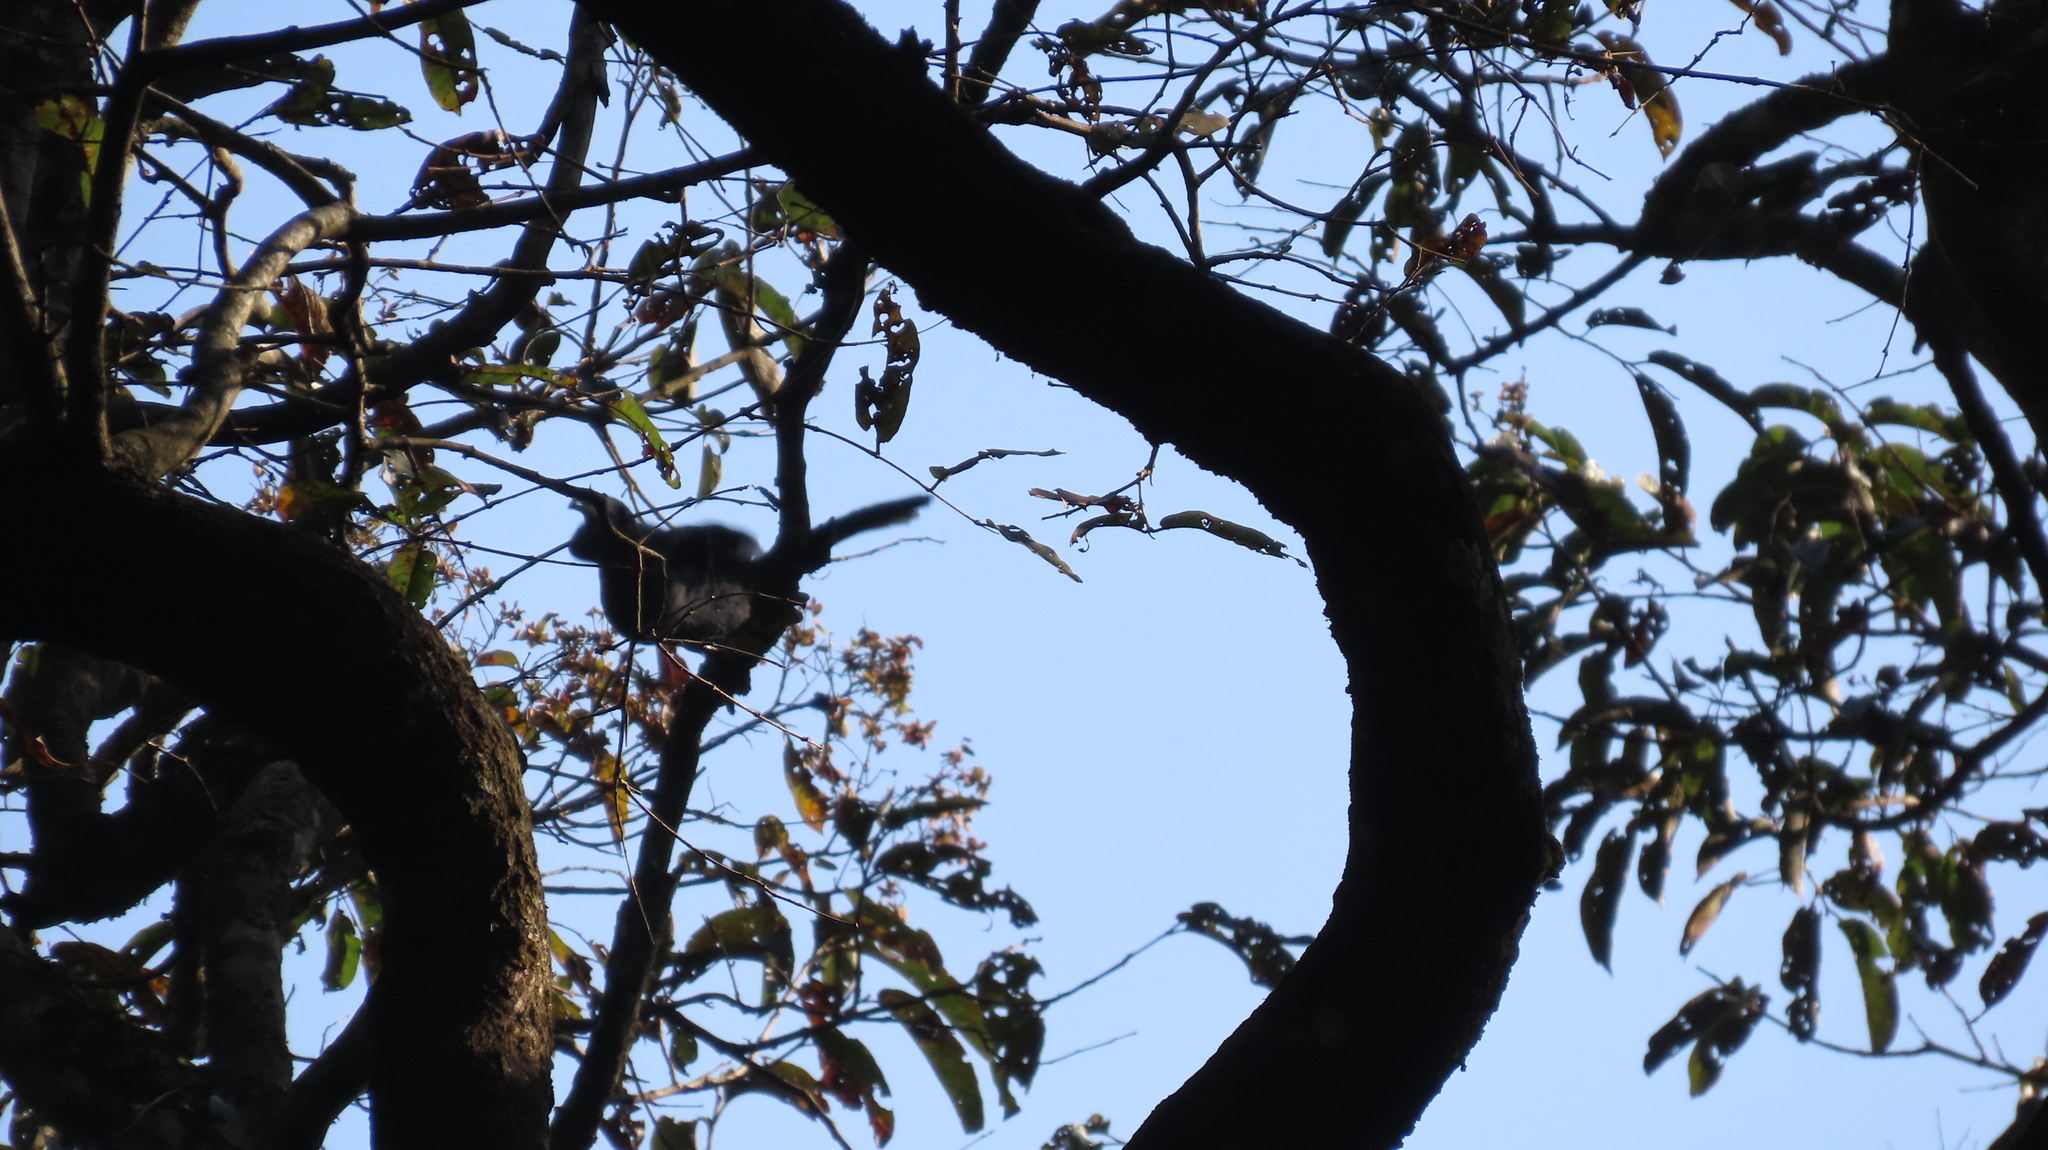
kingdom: Animalia
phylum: Chordata
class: Aves
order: Bucerotiformes
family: Bucerotidae
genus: Ocyceros
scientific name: Ocyceros griseus
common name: Malabar grey hornbill
